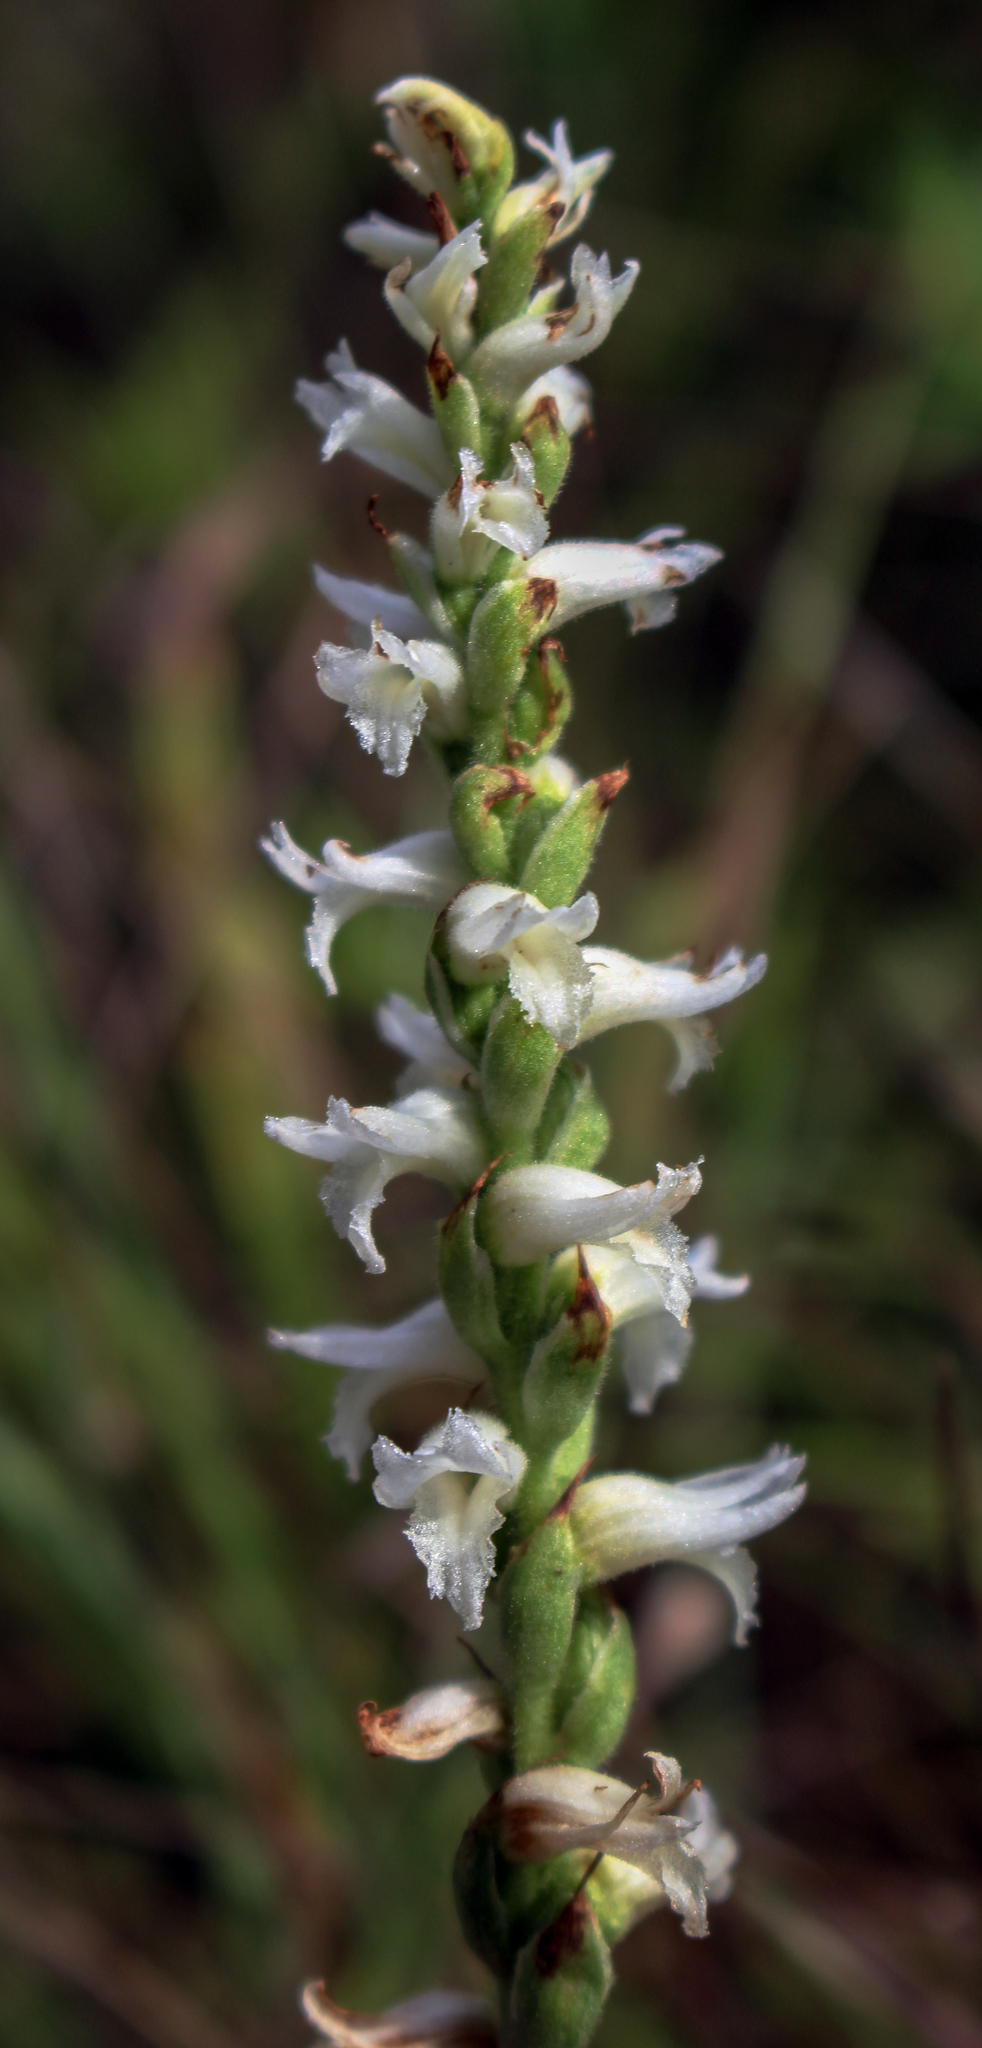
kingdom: Plantae
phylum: Tracheophyta
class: Liliopsida
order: Asparagales
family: Orchidaceae
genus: Spiranthes
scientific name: Spiranthes incurva
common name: Sphinx ladies'-tresses
